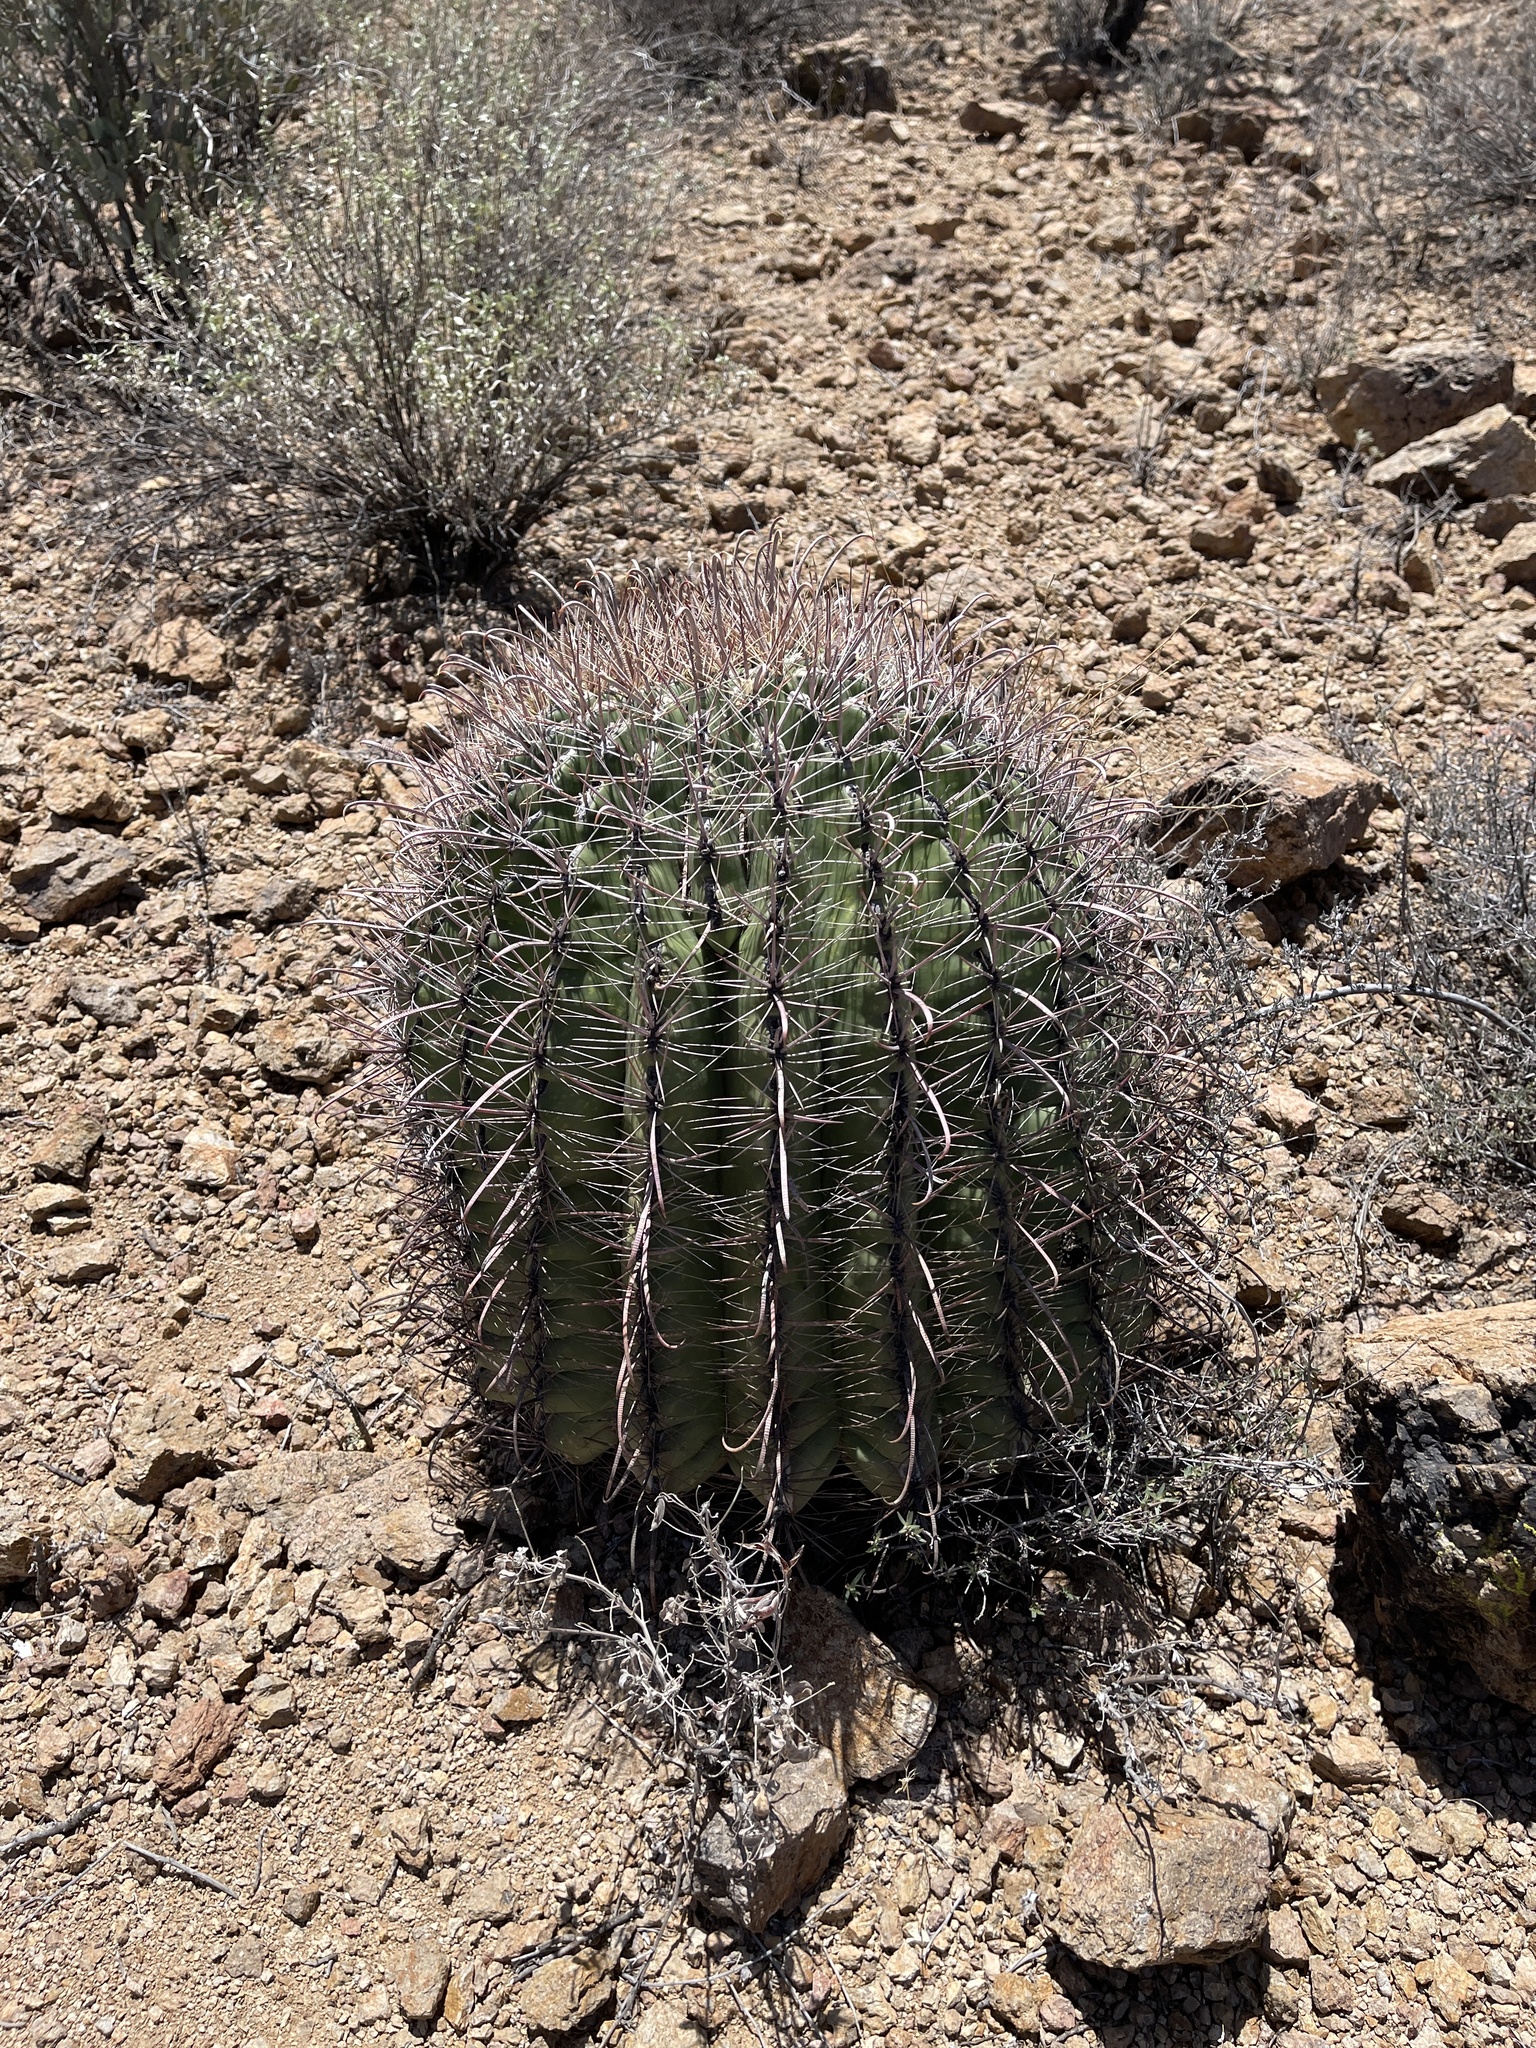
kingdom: Plantae
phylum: Tracheophyta
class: Magnoliopsida
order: Caryophyllales
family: Cactaceae
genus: Ferocactus
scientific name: Ferocactus wislizeni
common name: Candy barrel cactus
